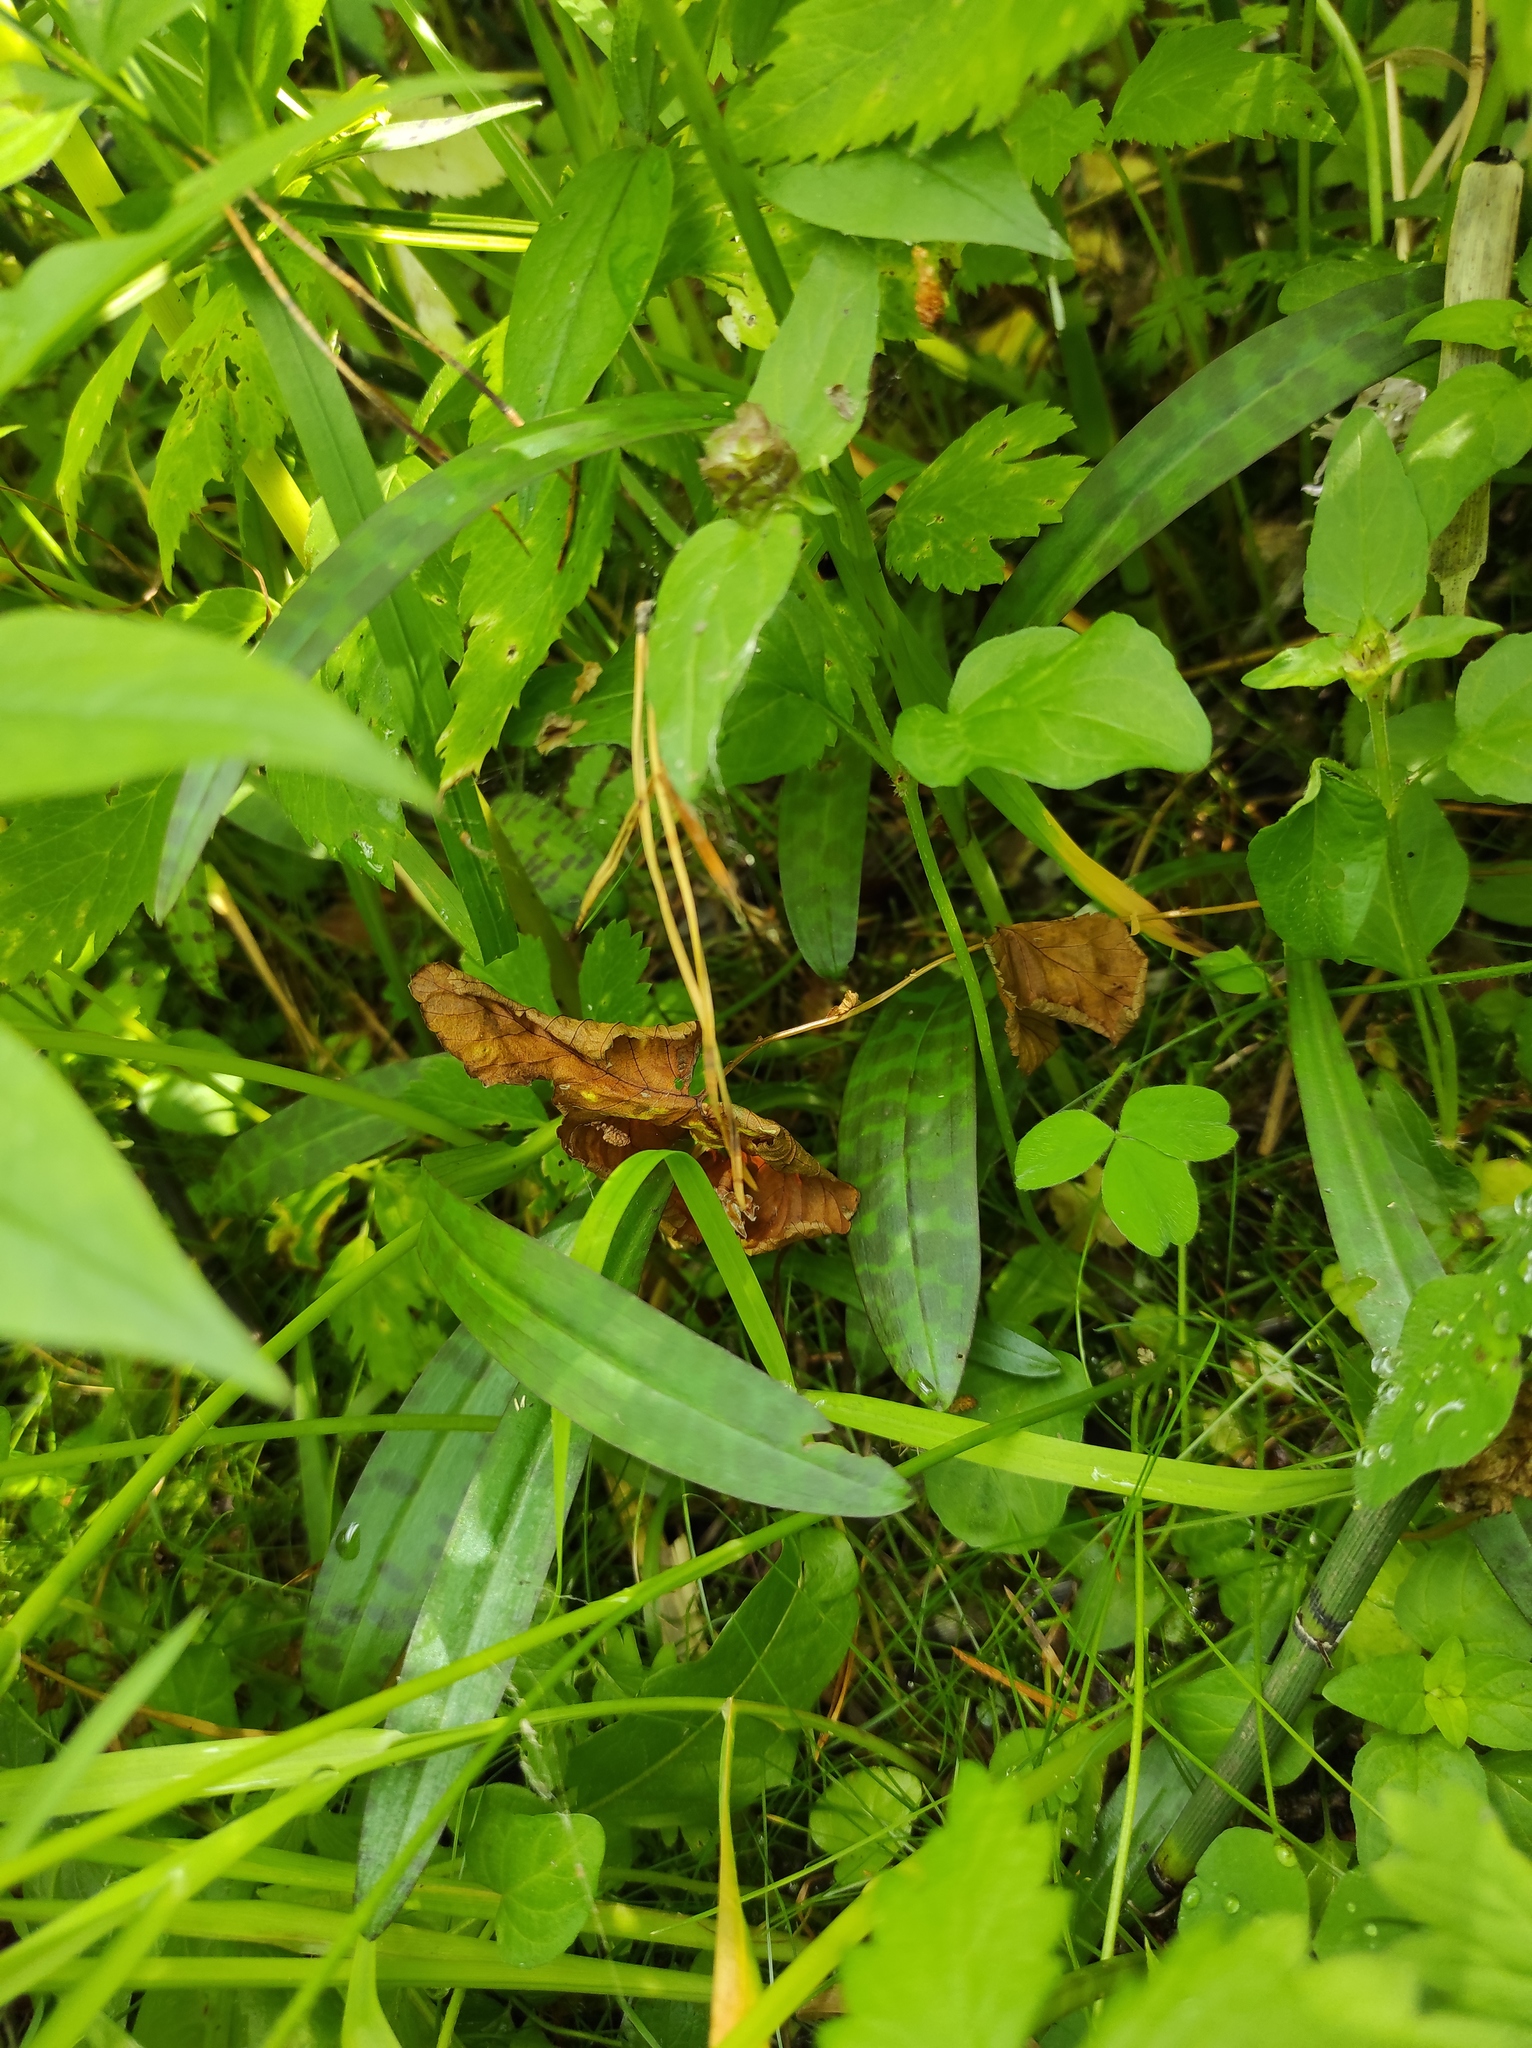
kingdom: Plantae
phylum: Tracheophyta
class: Liliopsida
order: Asparagales
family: Orchidaceae
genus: Dactylorhiza
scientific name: Dactylorhiza maculata
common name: Heath spotted-orchid
